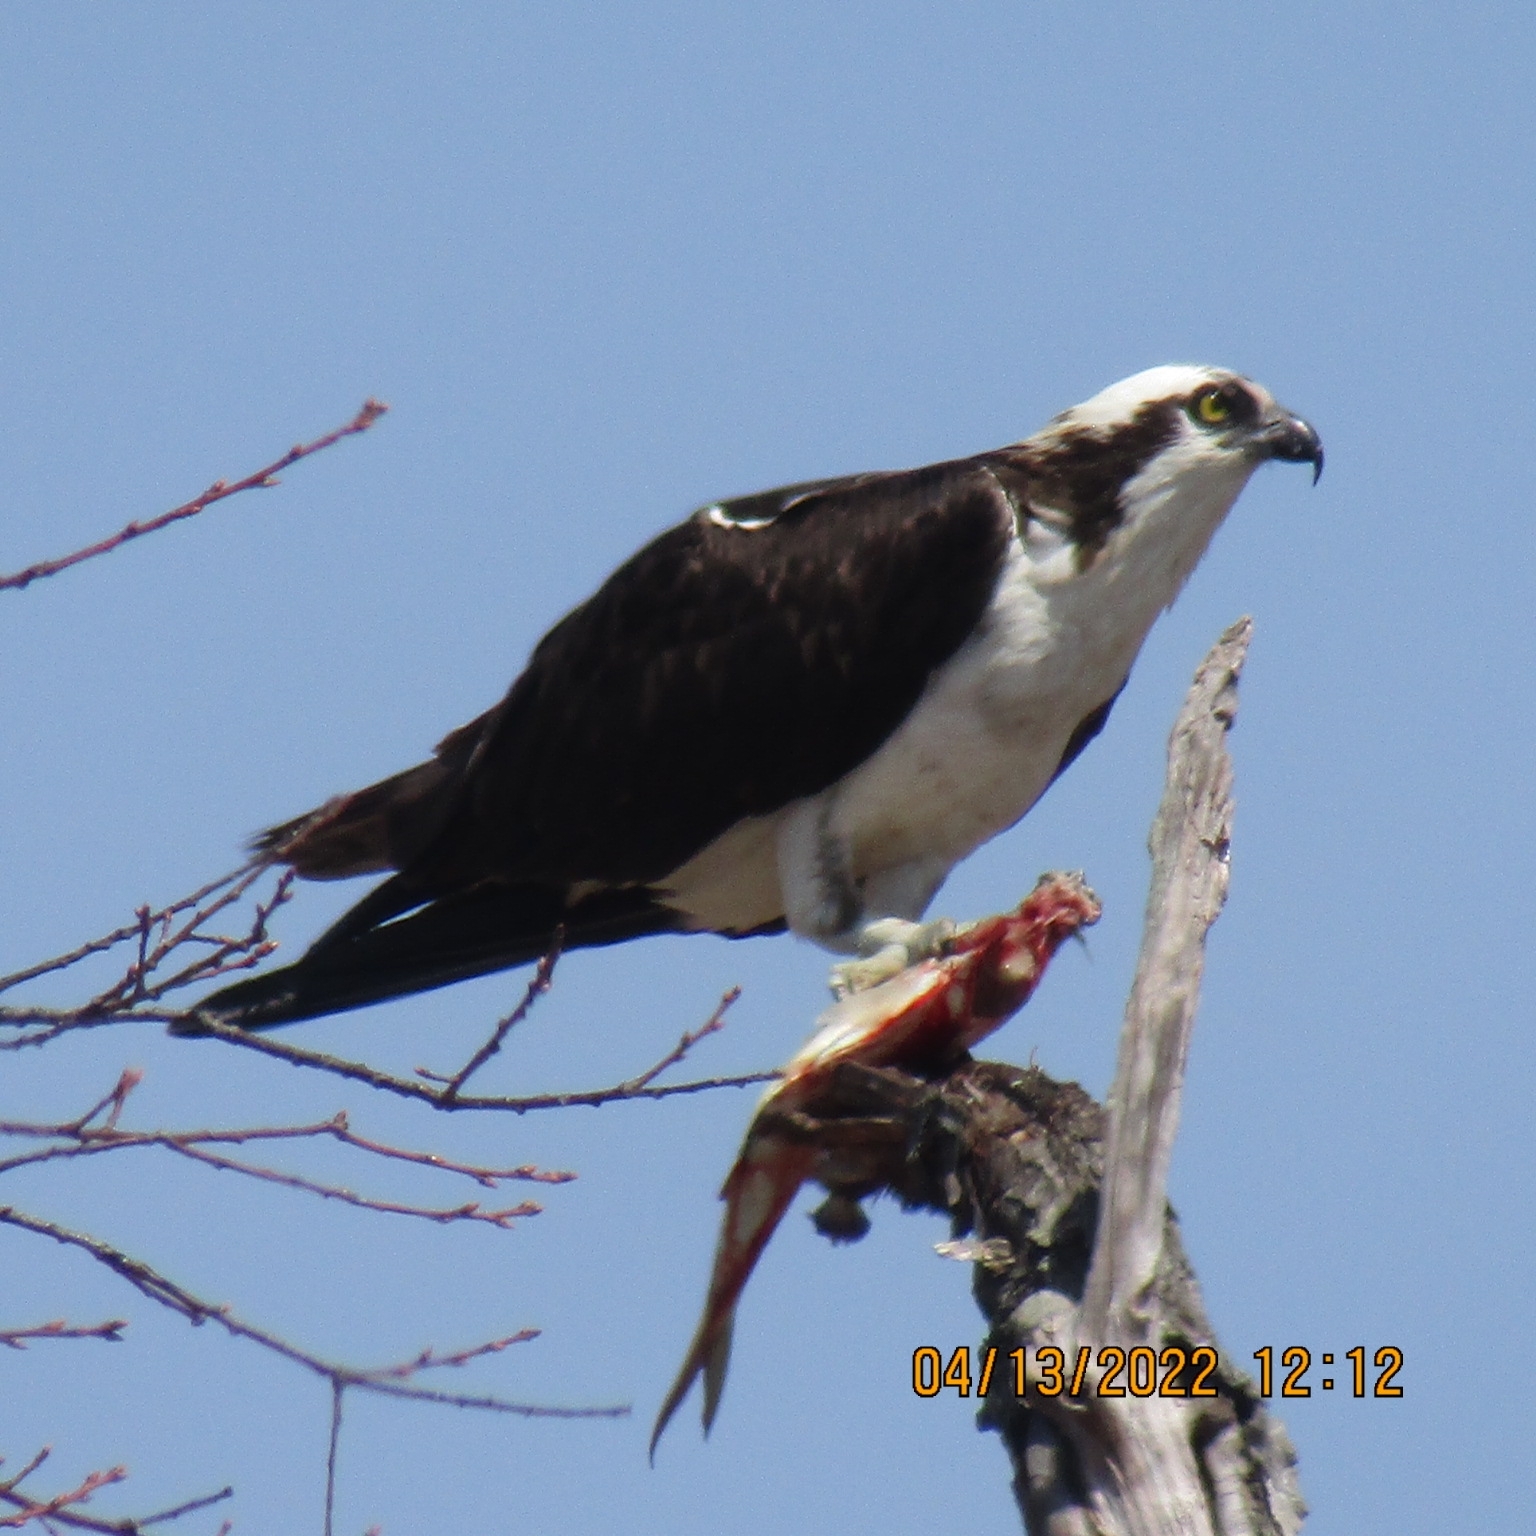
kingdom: Animalia
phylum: Chordata
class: Aves
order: Accipitriformes
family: Pandionidae
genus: Pandion
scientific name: Pandion haliaetus
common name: Osprey
